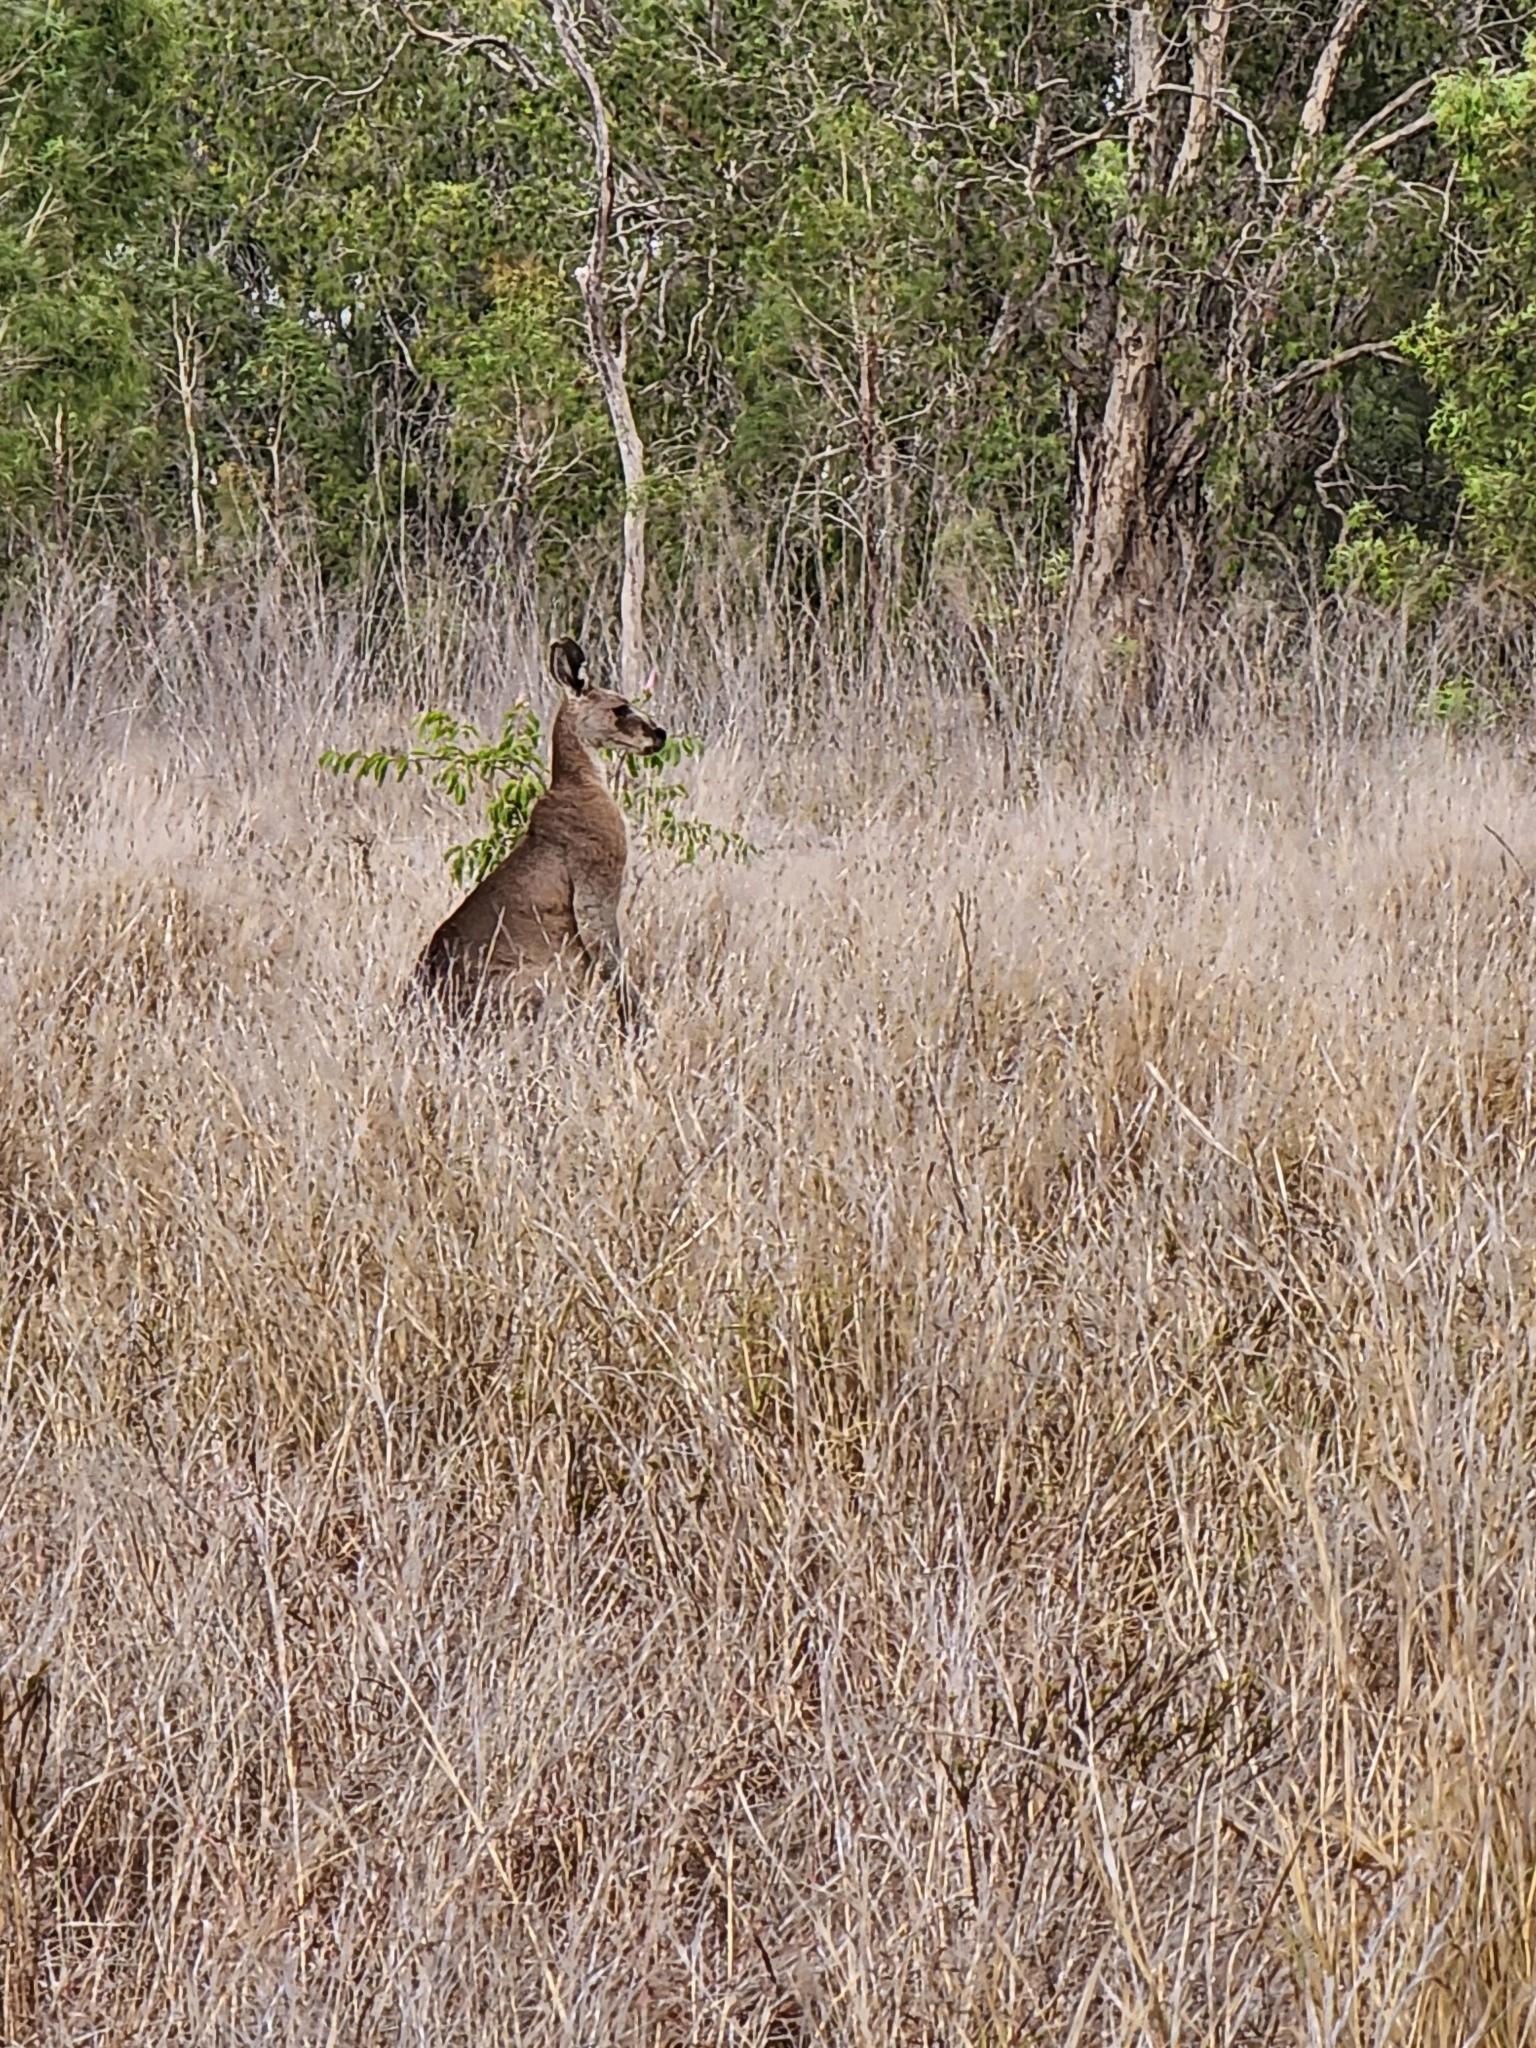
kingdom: Animalia
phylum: Chordata
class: Mammalia
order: Diprotodontia
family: Macropodidae
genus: Macropus
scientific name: Macropus giganteus
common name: Eastern grey kangaroo
